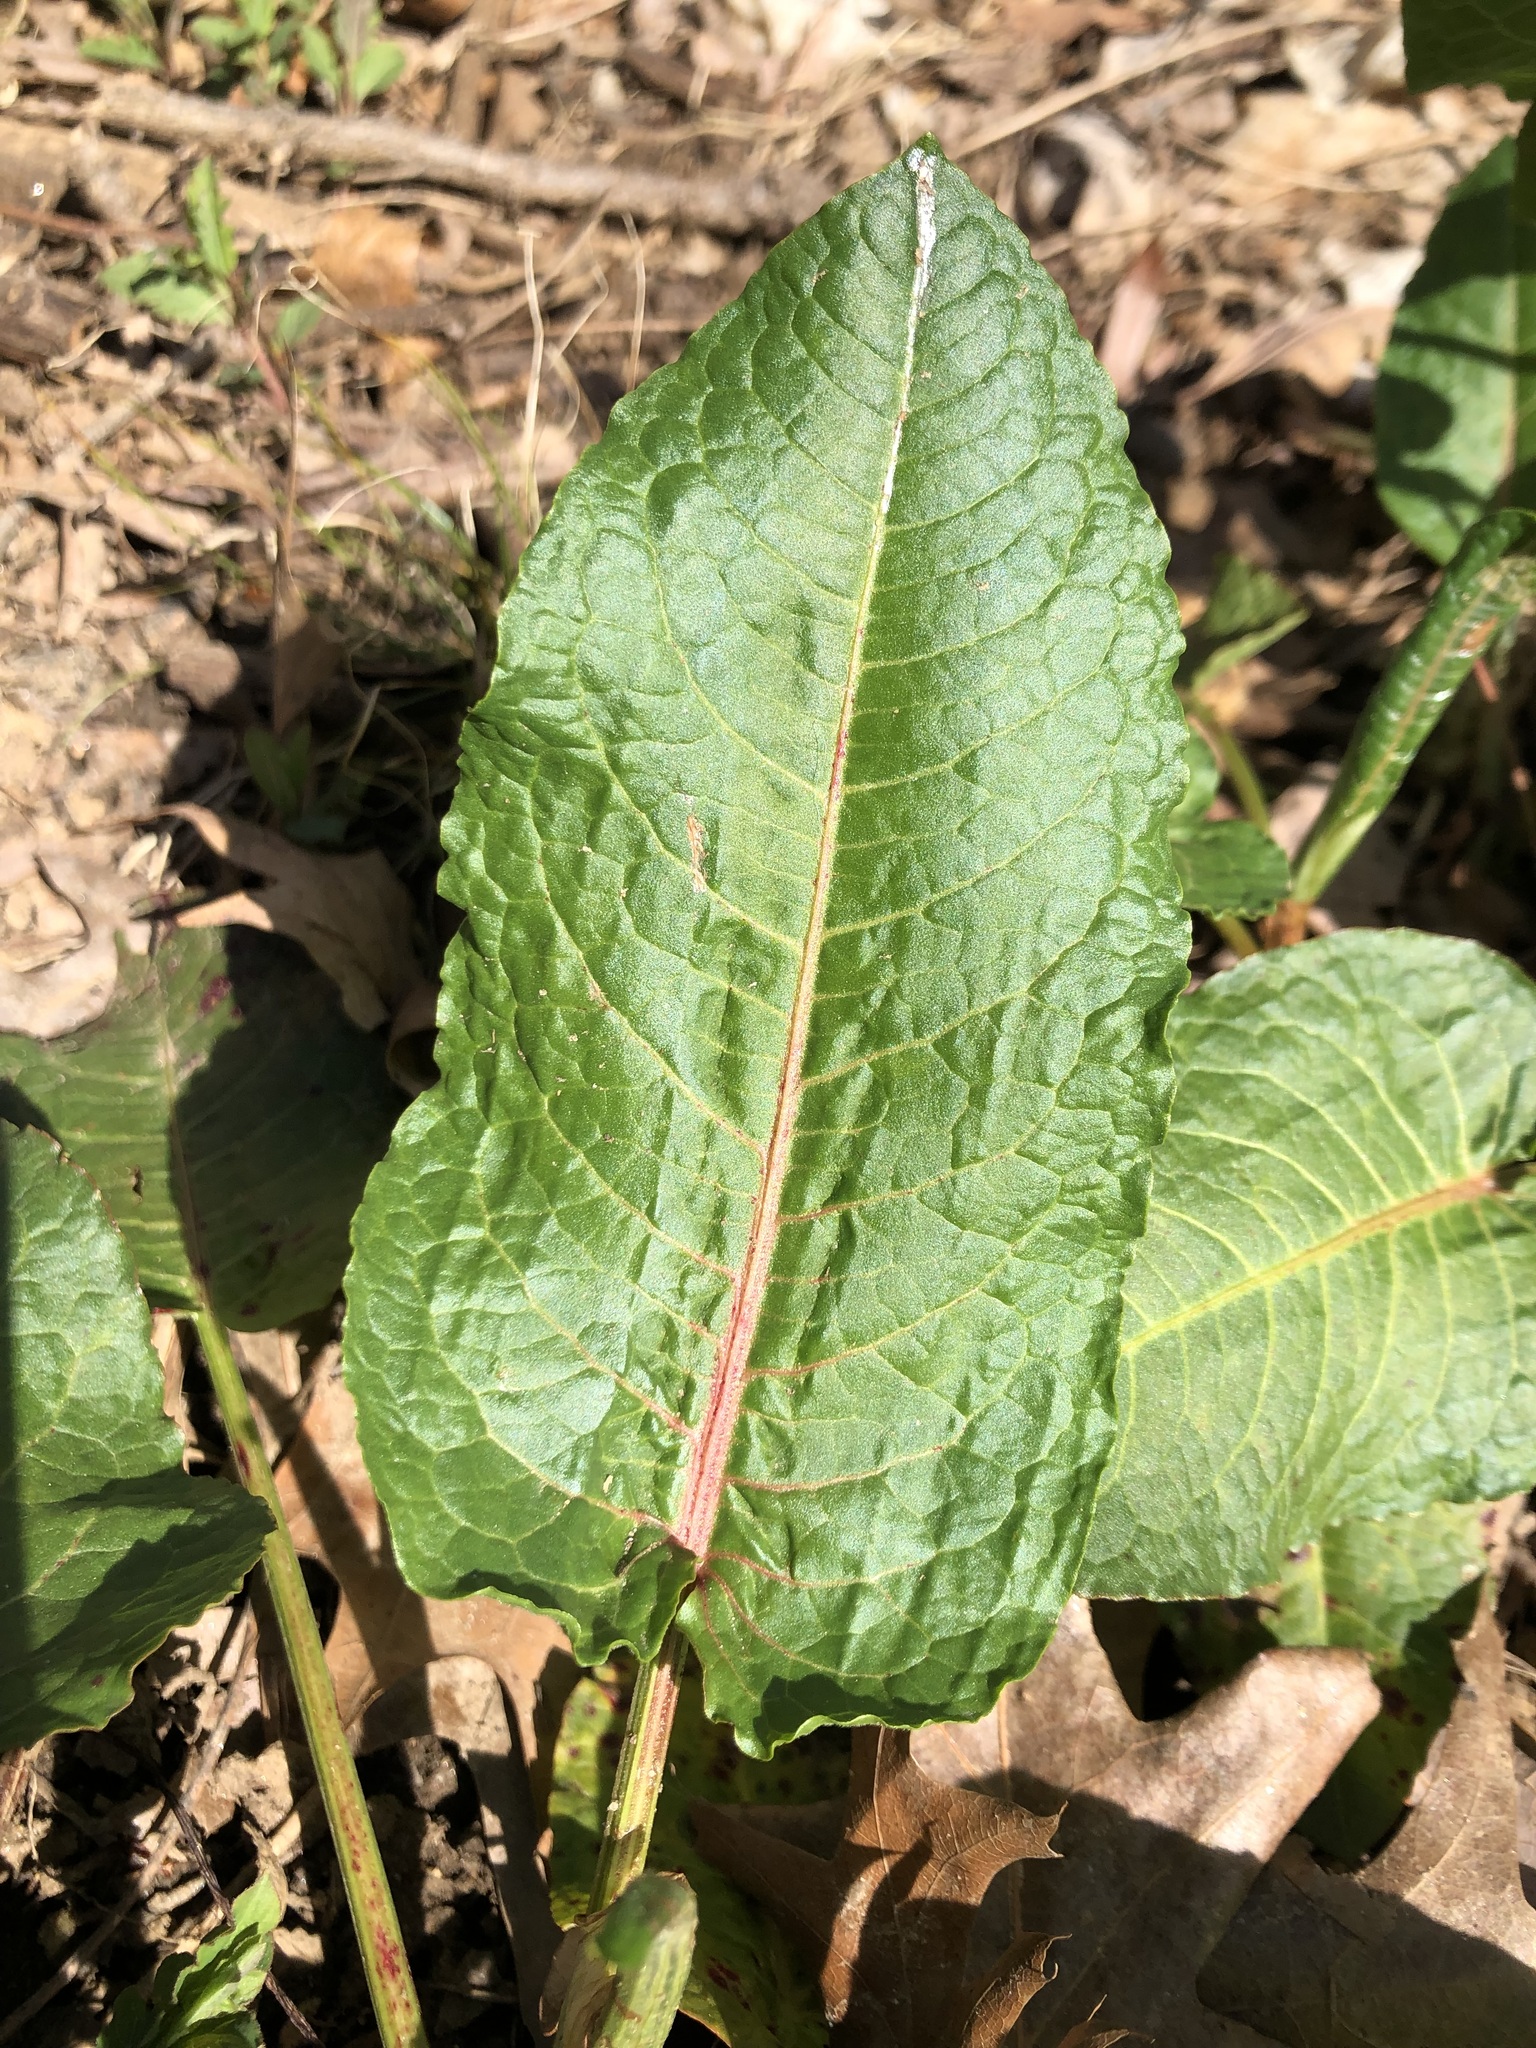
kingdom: Plantae
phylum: Tracheophyta
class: Magnoliopsida
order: Caryophyllales
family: Polygonaceae
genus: Rumex
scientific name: Rumex obtusifolius
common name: Bitter dock
